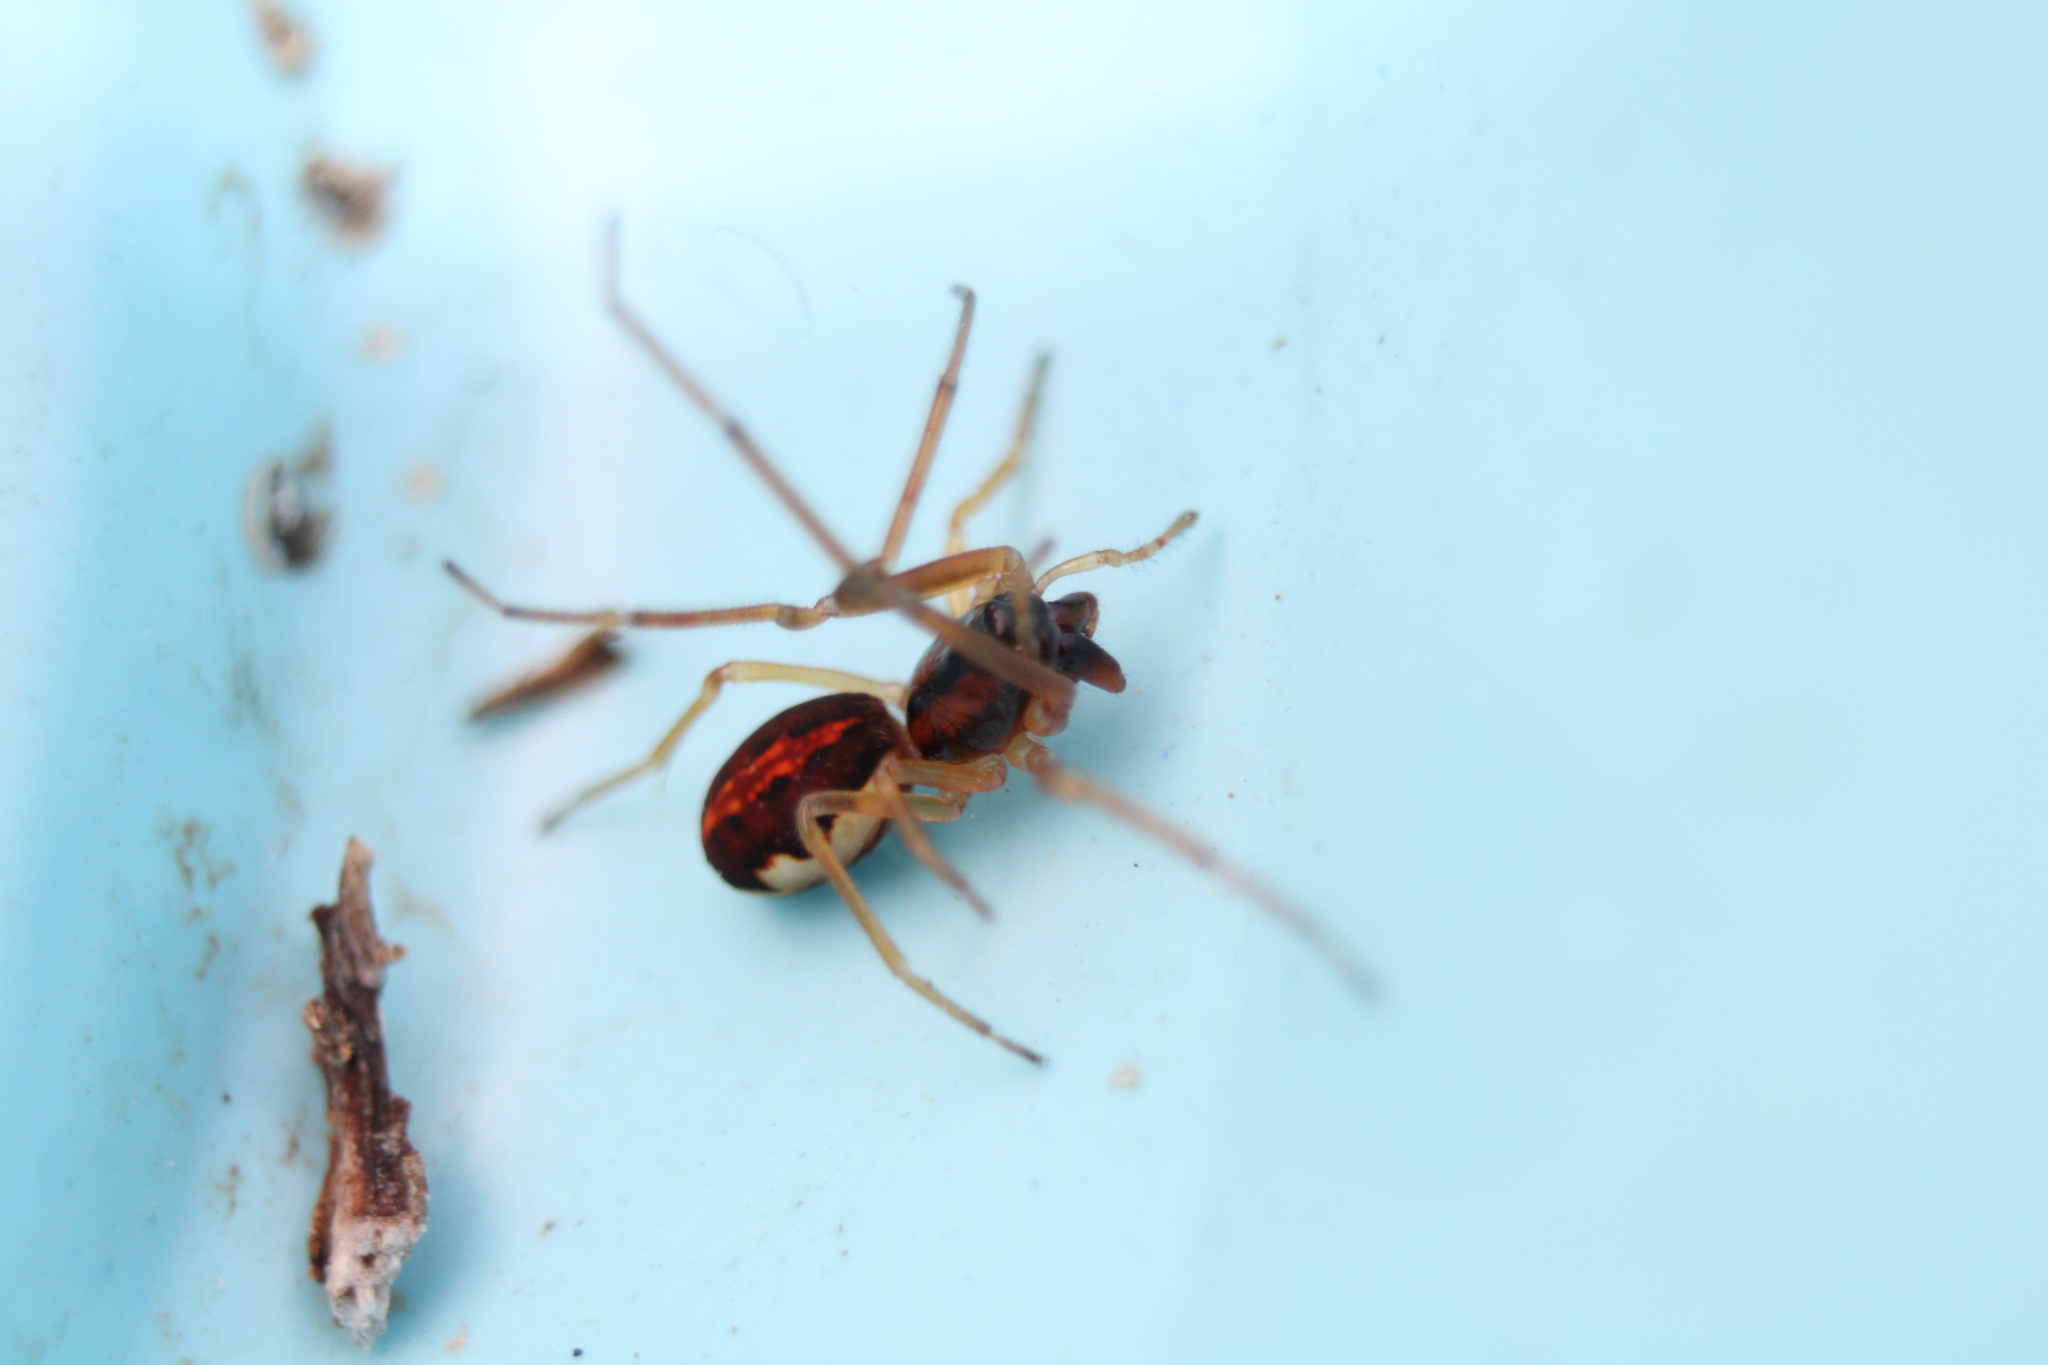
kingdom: Animalia
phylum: Arthropoda
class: Arachnida
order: Araneae
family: Tetragnathidae
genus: Pachygnatha
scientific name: Pachygnatha autumnalis
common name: Big-eyed thick-jawed spider
